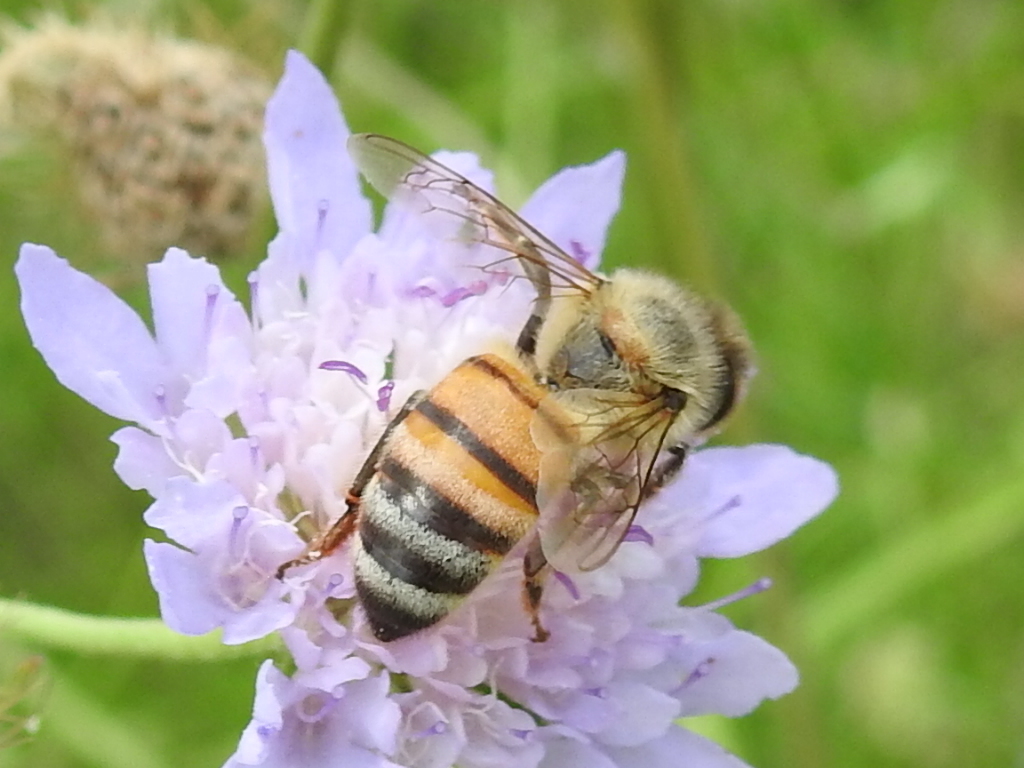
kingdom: Animalia
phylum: Arthropoda
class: Insecta
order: Hymenoptera
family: Apidae
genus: Apis
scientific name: Apis mellifera
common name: Honey bee
